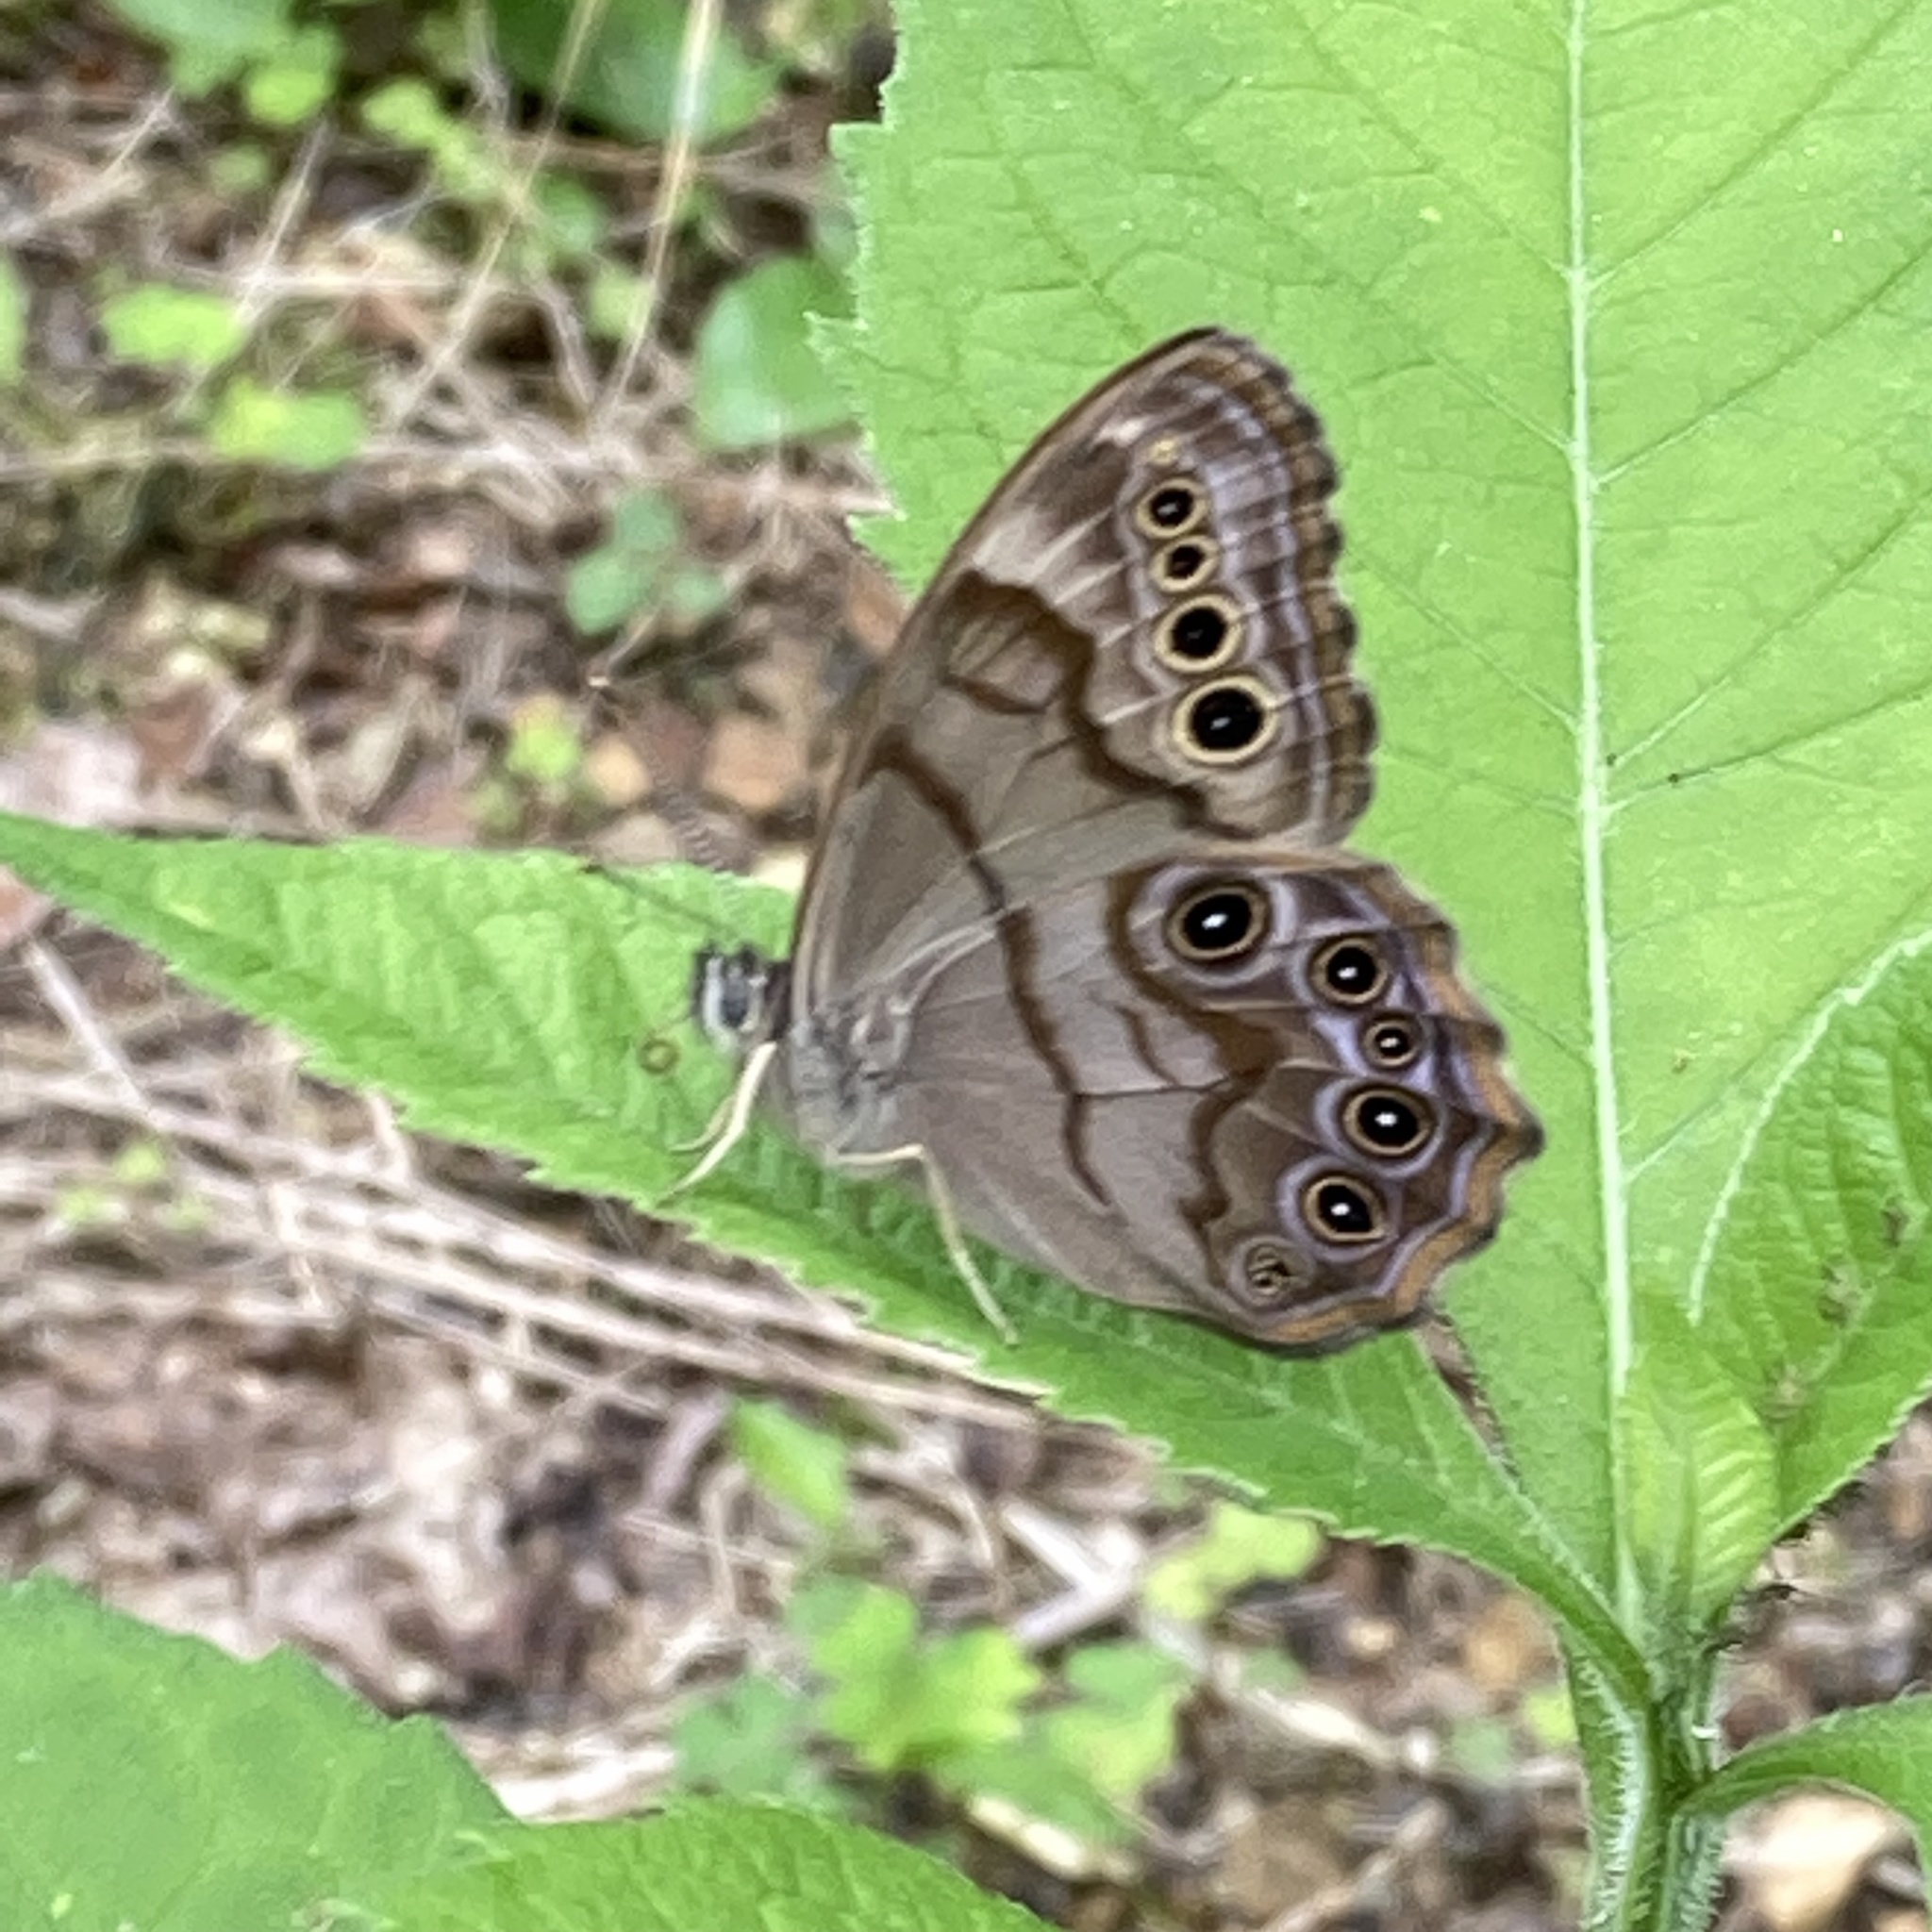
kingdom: Animalia
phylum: Arthropoda
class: Insecta
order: Lepidoptera
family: Nymphalidae
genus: Lethe
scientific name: Lethe anthedon
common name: Northern pearly-eye
